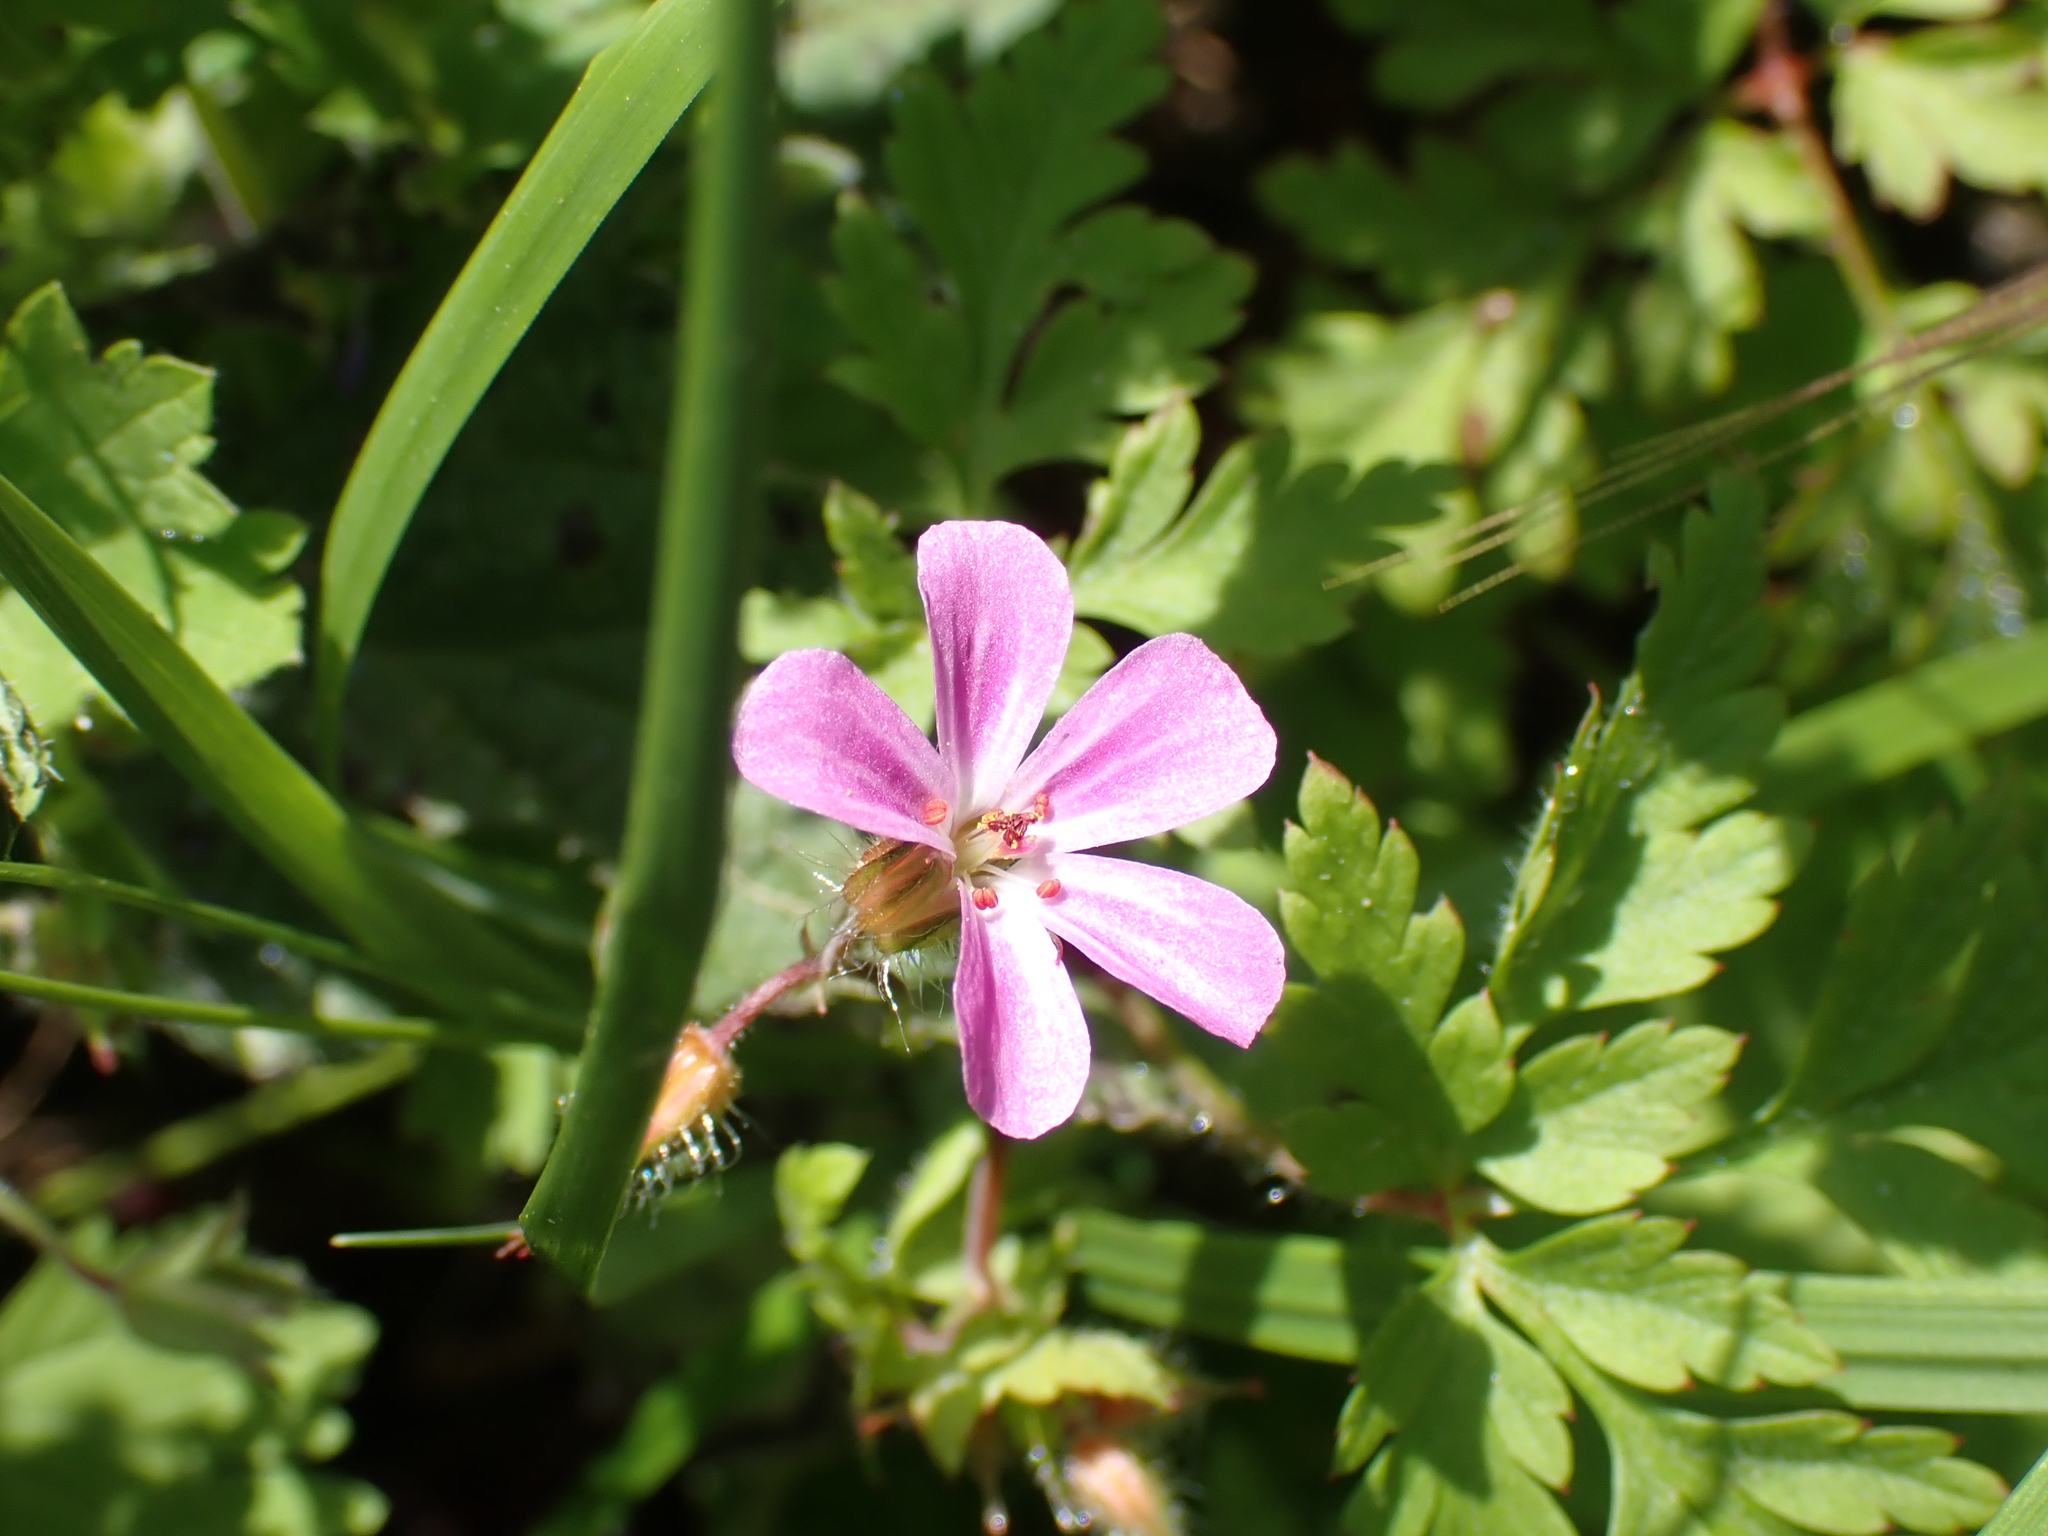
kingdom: Plantae
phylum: Tracheophyta
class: Magnoliopsida
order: Geraniales
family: Geraniaceae
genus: Geranium
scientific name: Geranium robertianum
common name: Herb-robert
